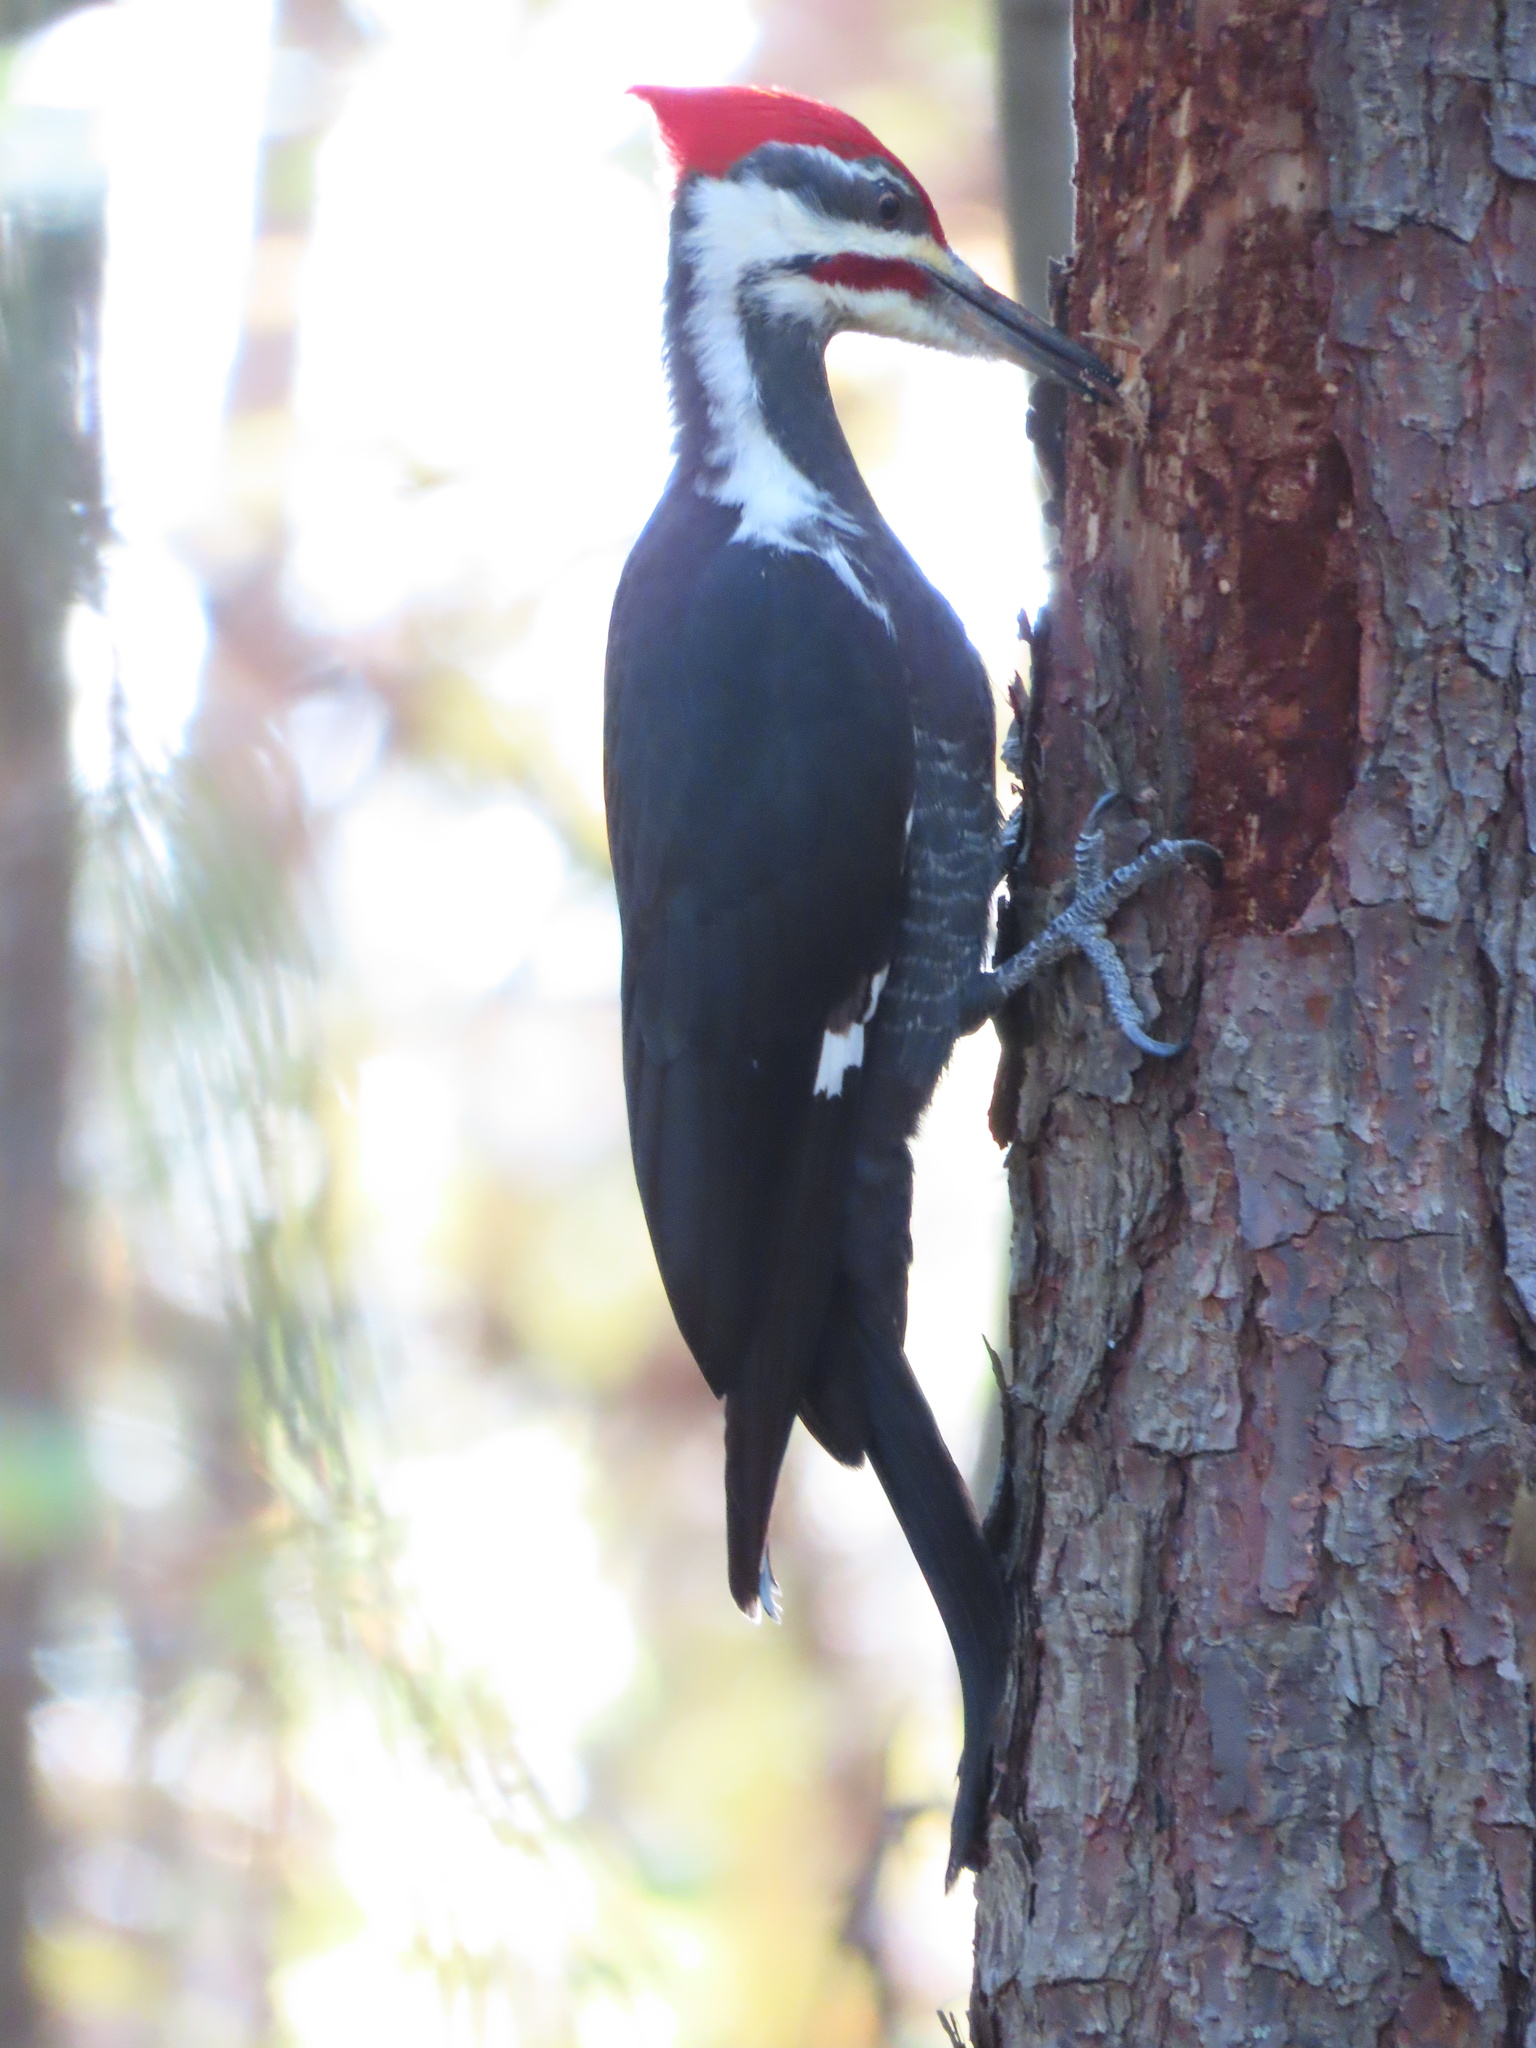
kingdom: Animalia
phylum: Chordata
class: Aves
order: Piciformes
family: Picidae
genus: Dryocopus
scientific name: Dryocopus pileatus
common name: Pileated woodpecker
